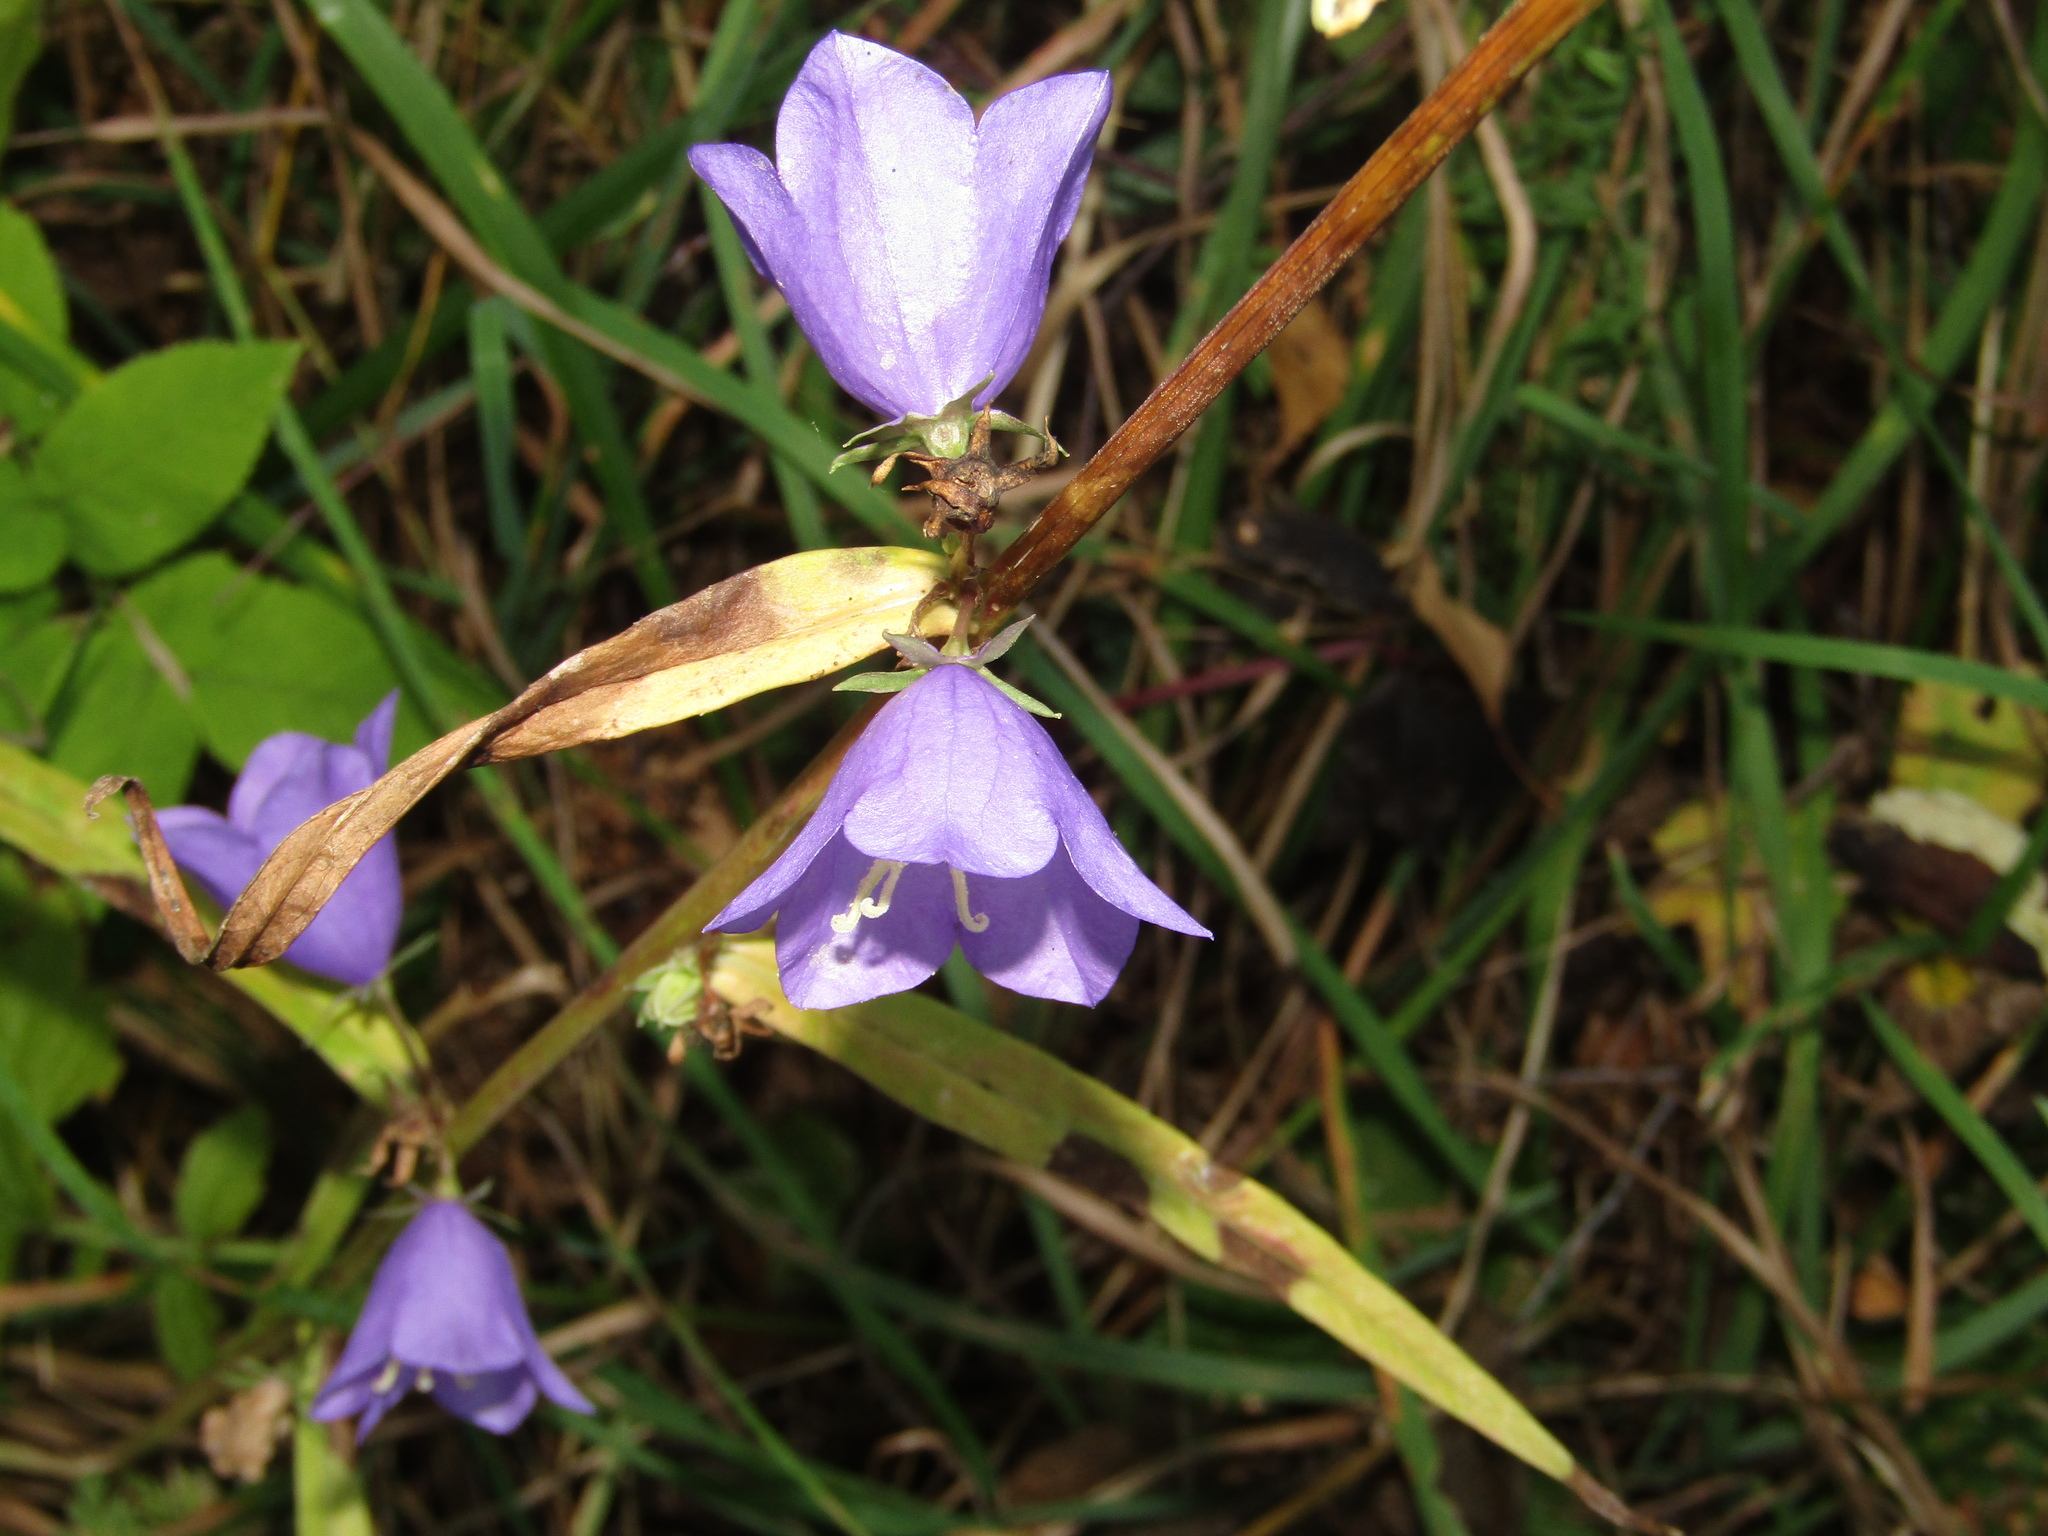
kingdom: Plantae
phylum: Tracheophyta
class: Magnoliopsida
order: Asterales
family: Campanulaceae
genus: Campanula
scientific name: Campanula persicifolia
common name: Peach-leaved bellflower
